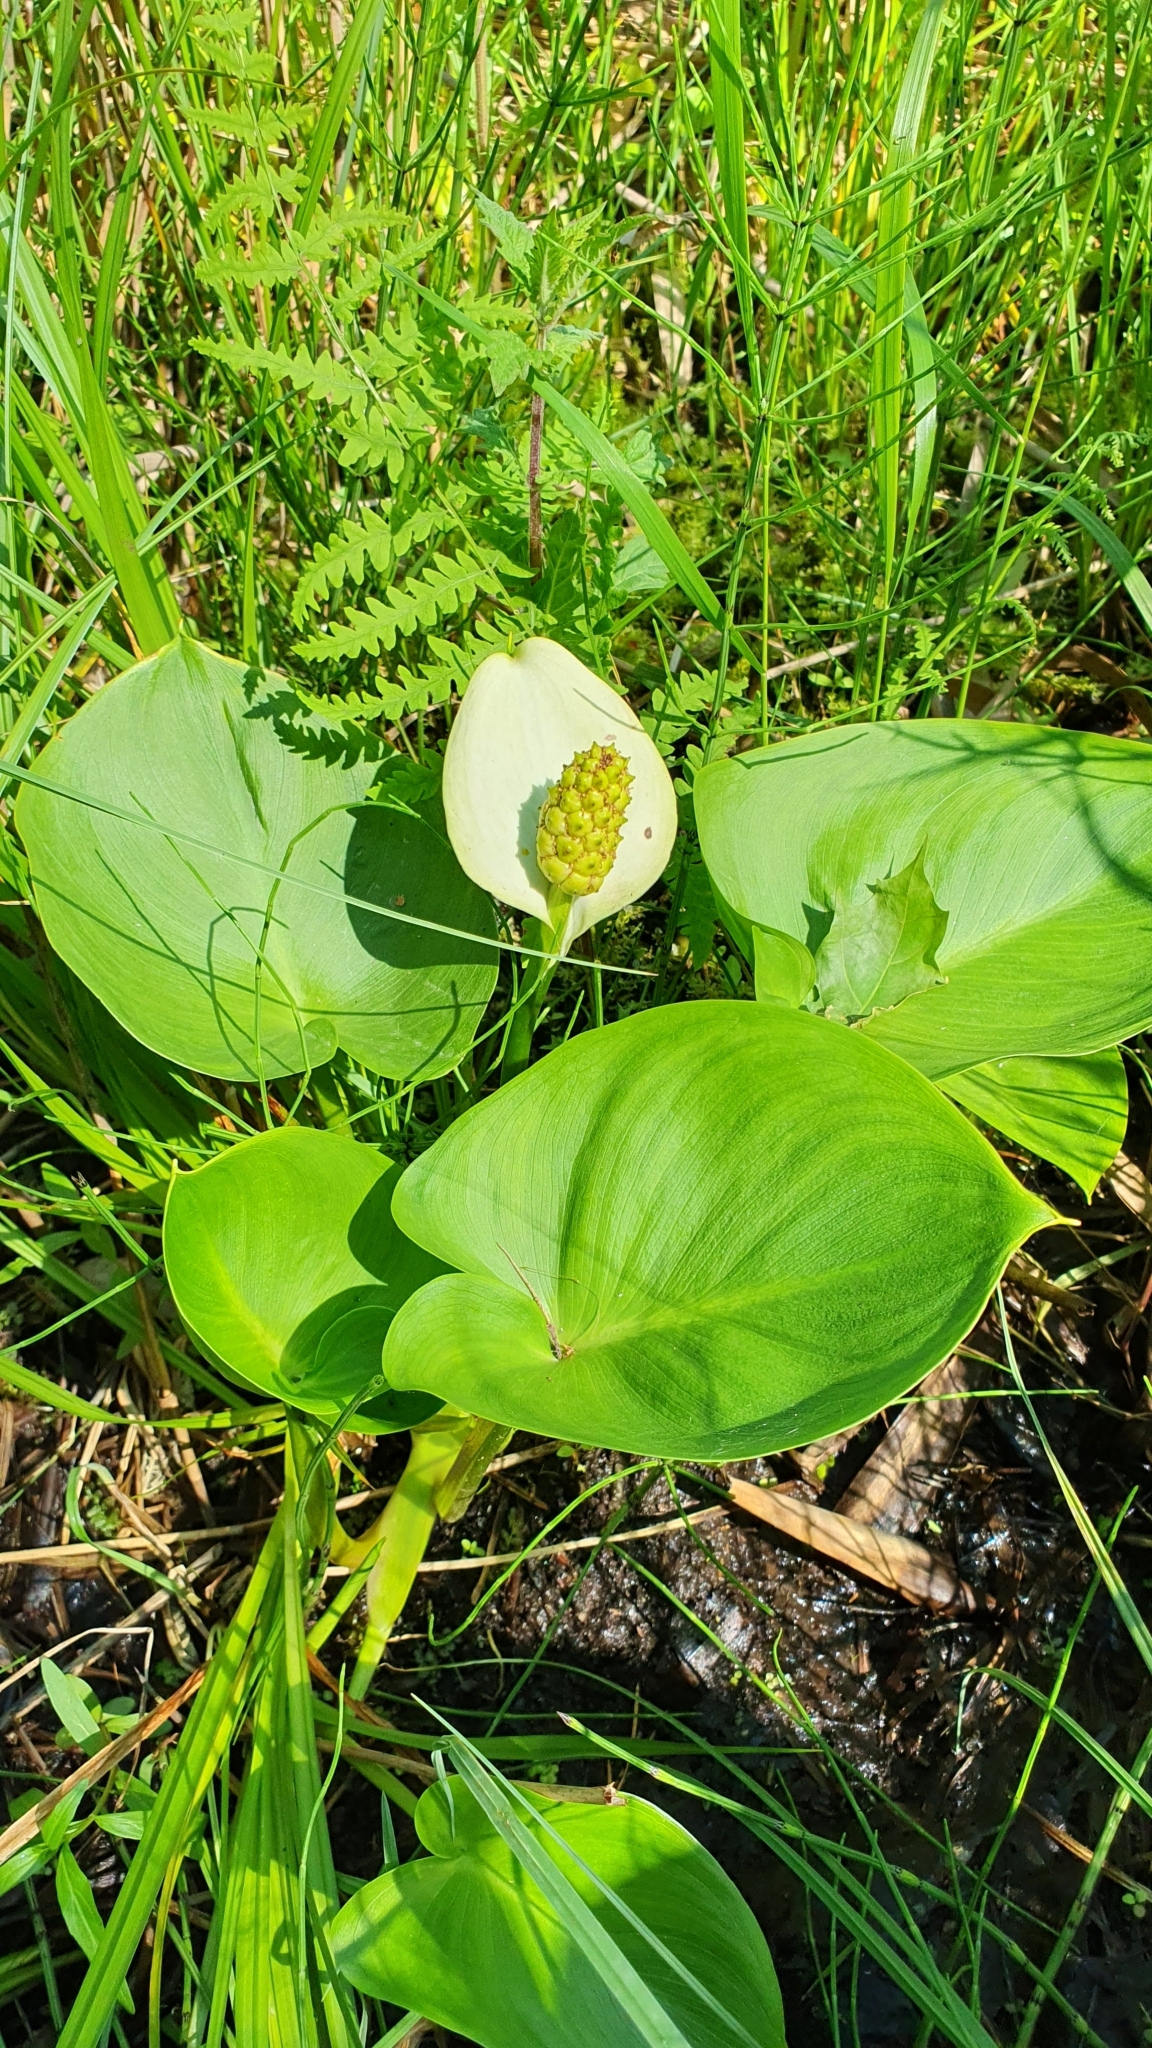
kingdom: Plantae
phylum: Tracheophyta
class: Liliopsida
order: Alismatales
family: Araceae
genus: Calla
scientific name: Calla palustris
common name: Bog arum
